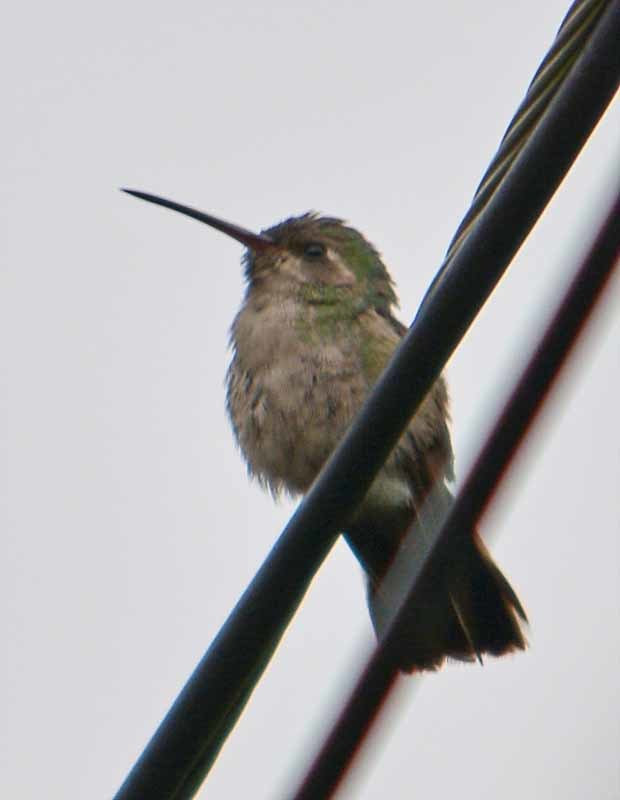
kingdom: Animalia
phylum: Chordata
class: Aves
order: Apodiformes
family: Trochilidae
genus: Cynanthus
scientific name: Cynanthus latirostris
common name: Broad-billed hummingbird
